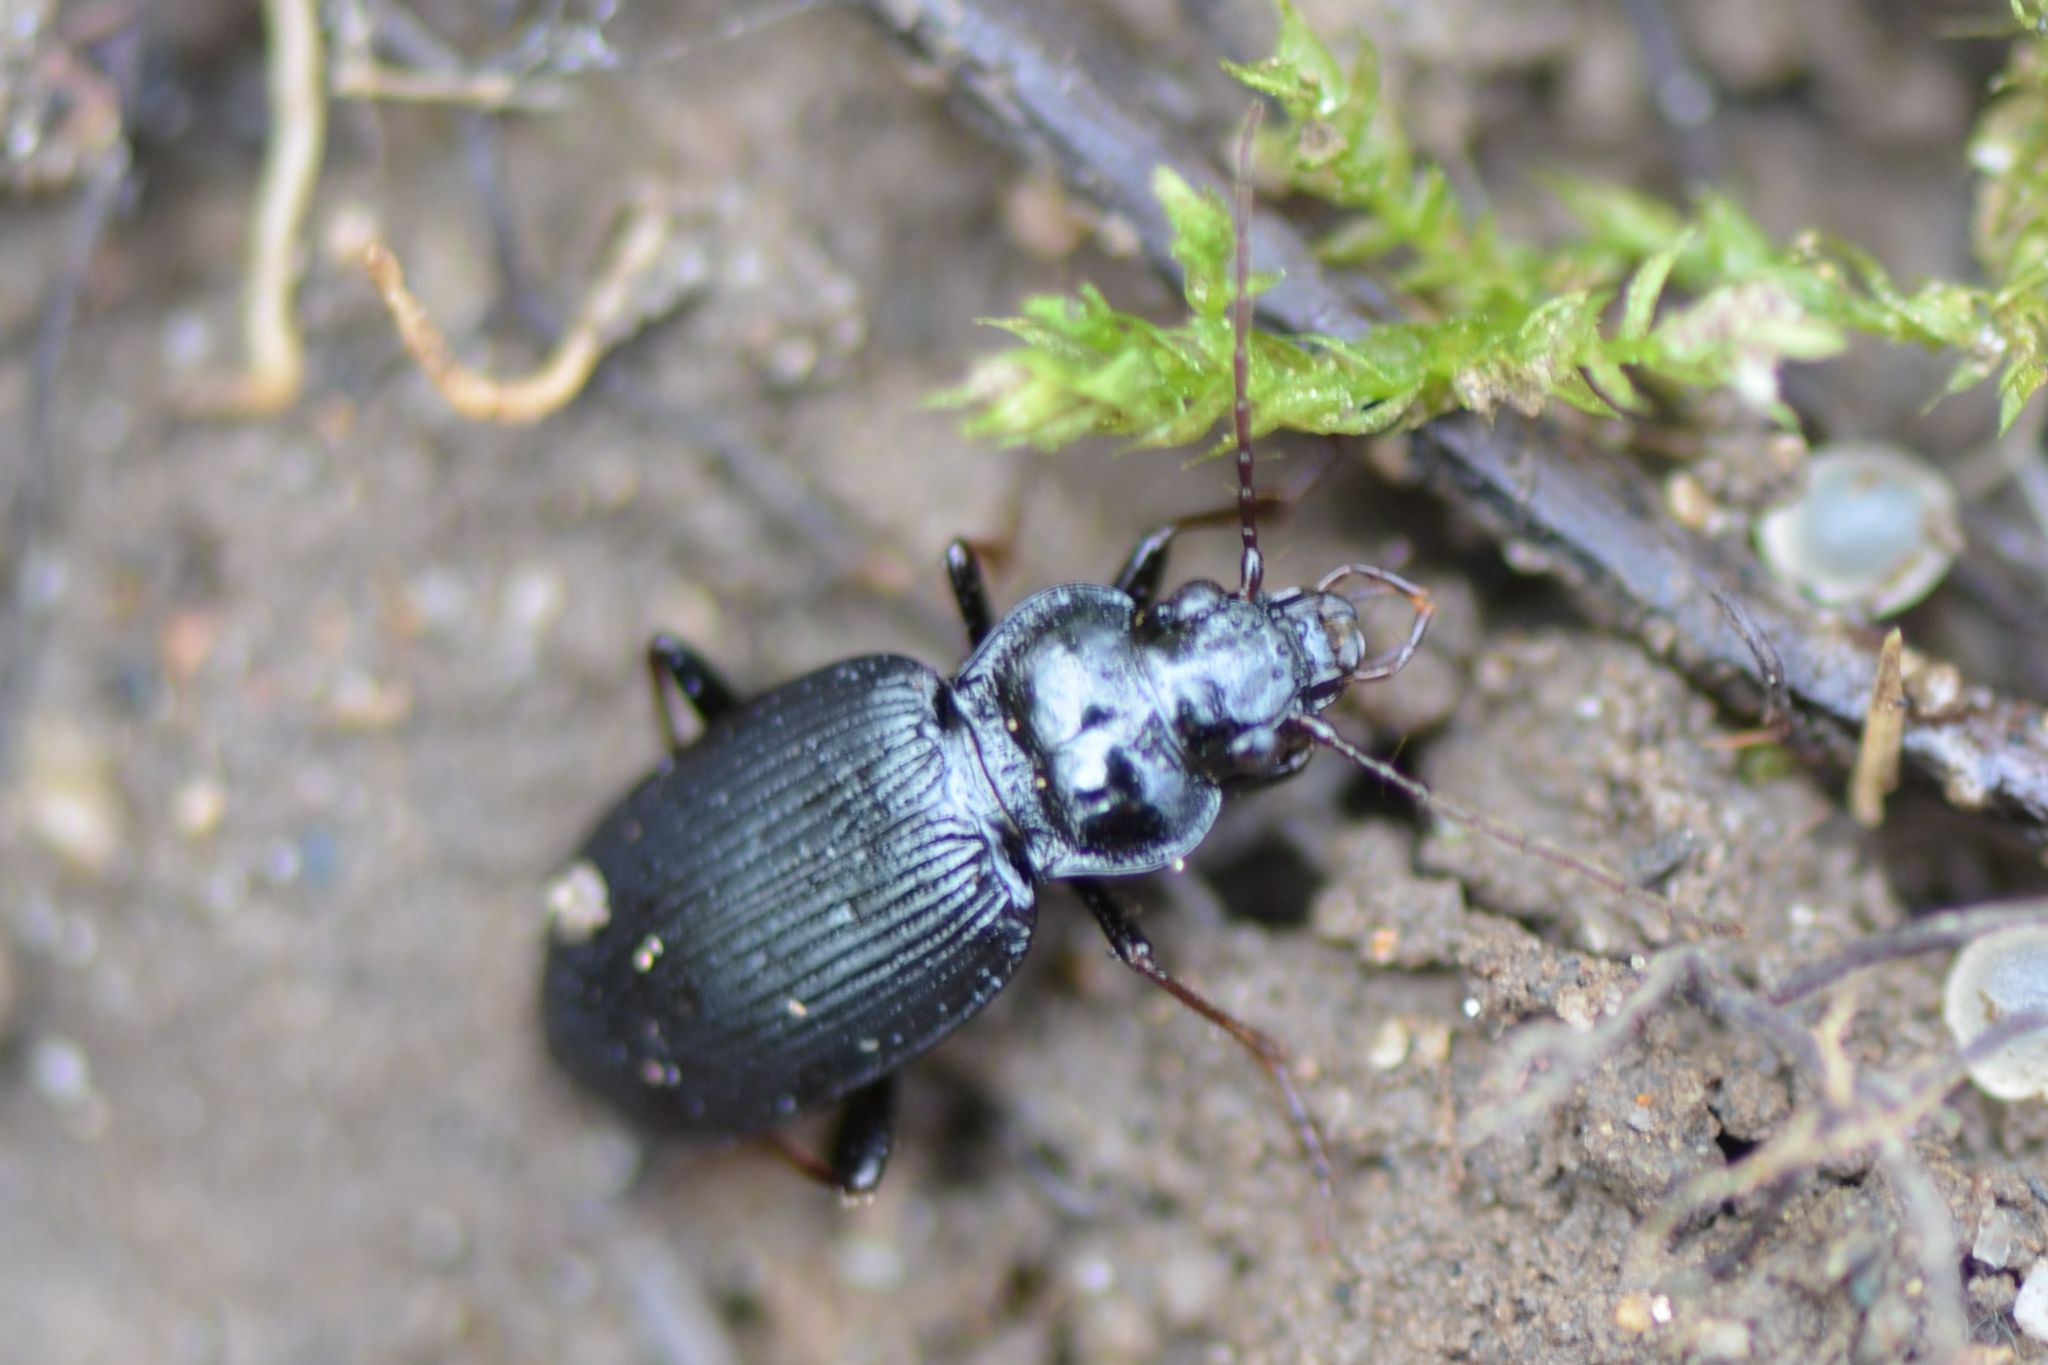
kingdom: Animalia
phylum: Arthropoda
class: Insecta
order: Coleoptera
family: Carabidae
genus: Nebria
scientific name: Nebria brevicollis
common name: Short-necked gazelle beetle
